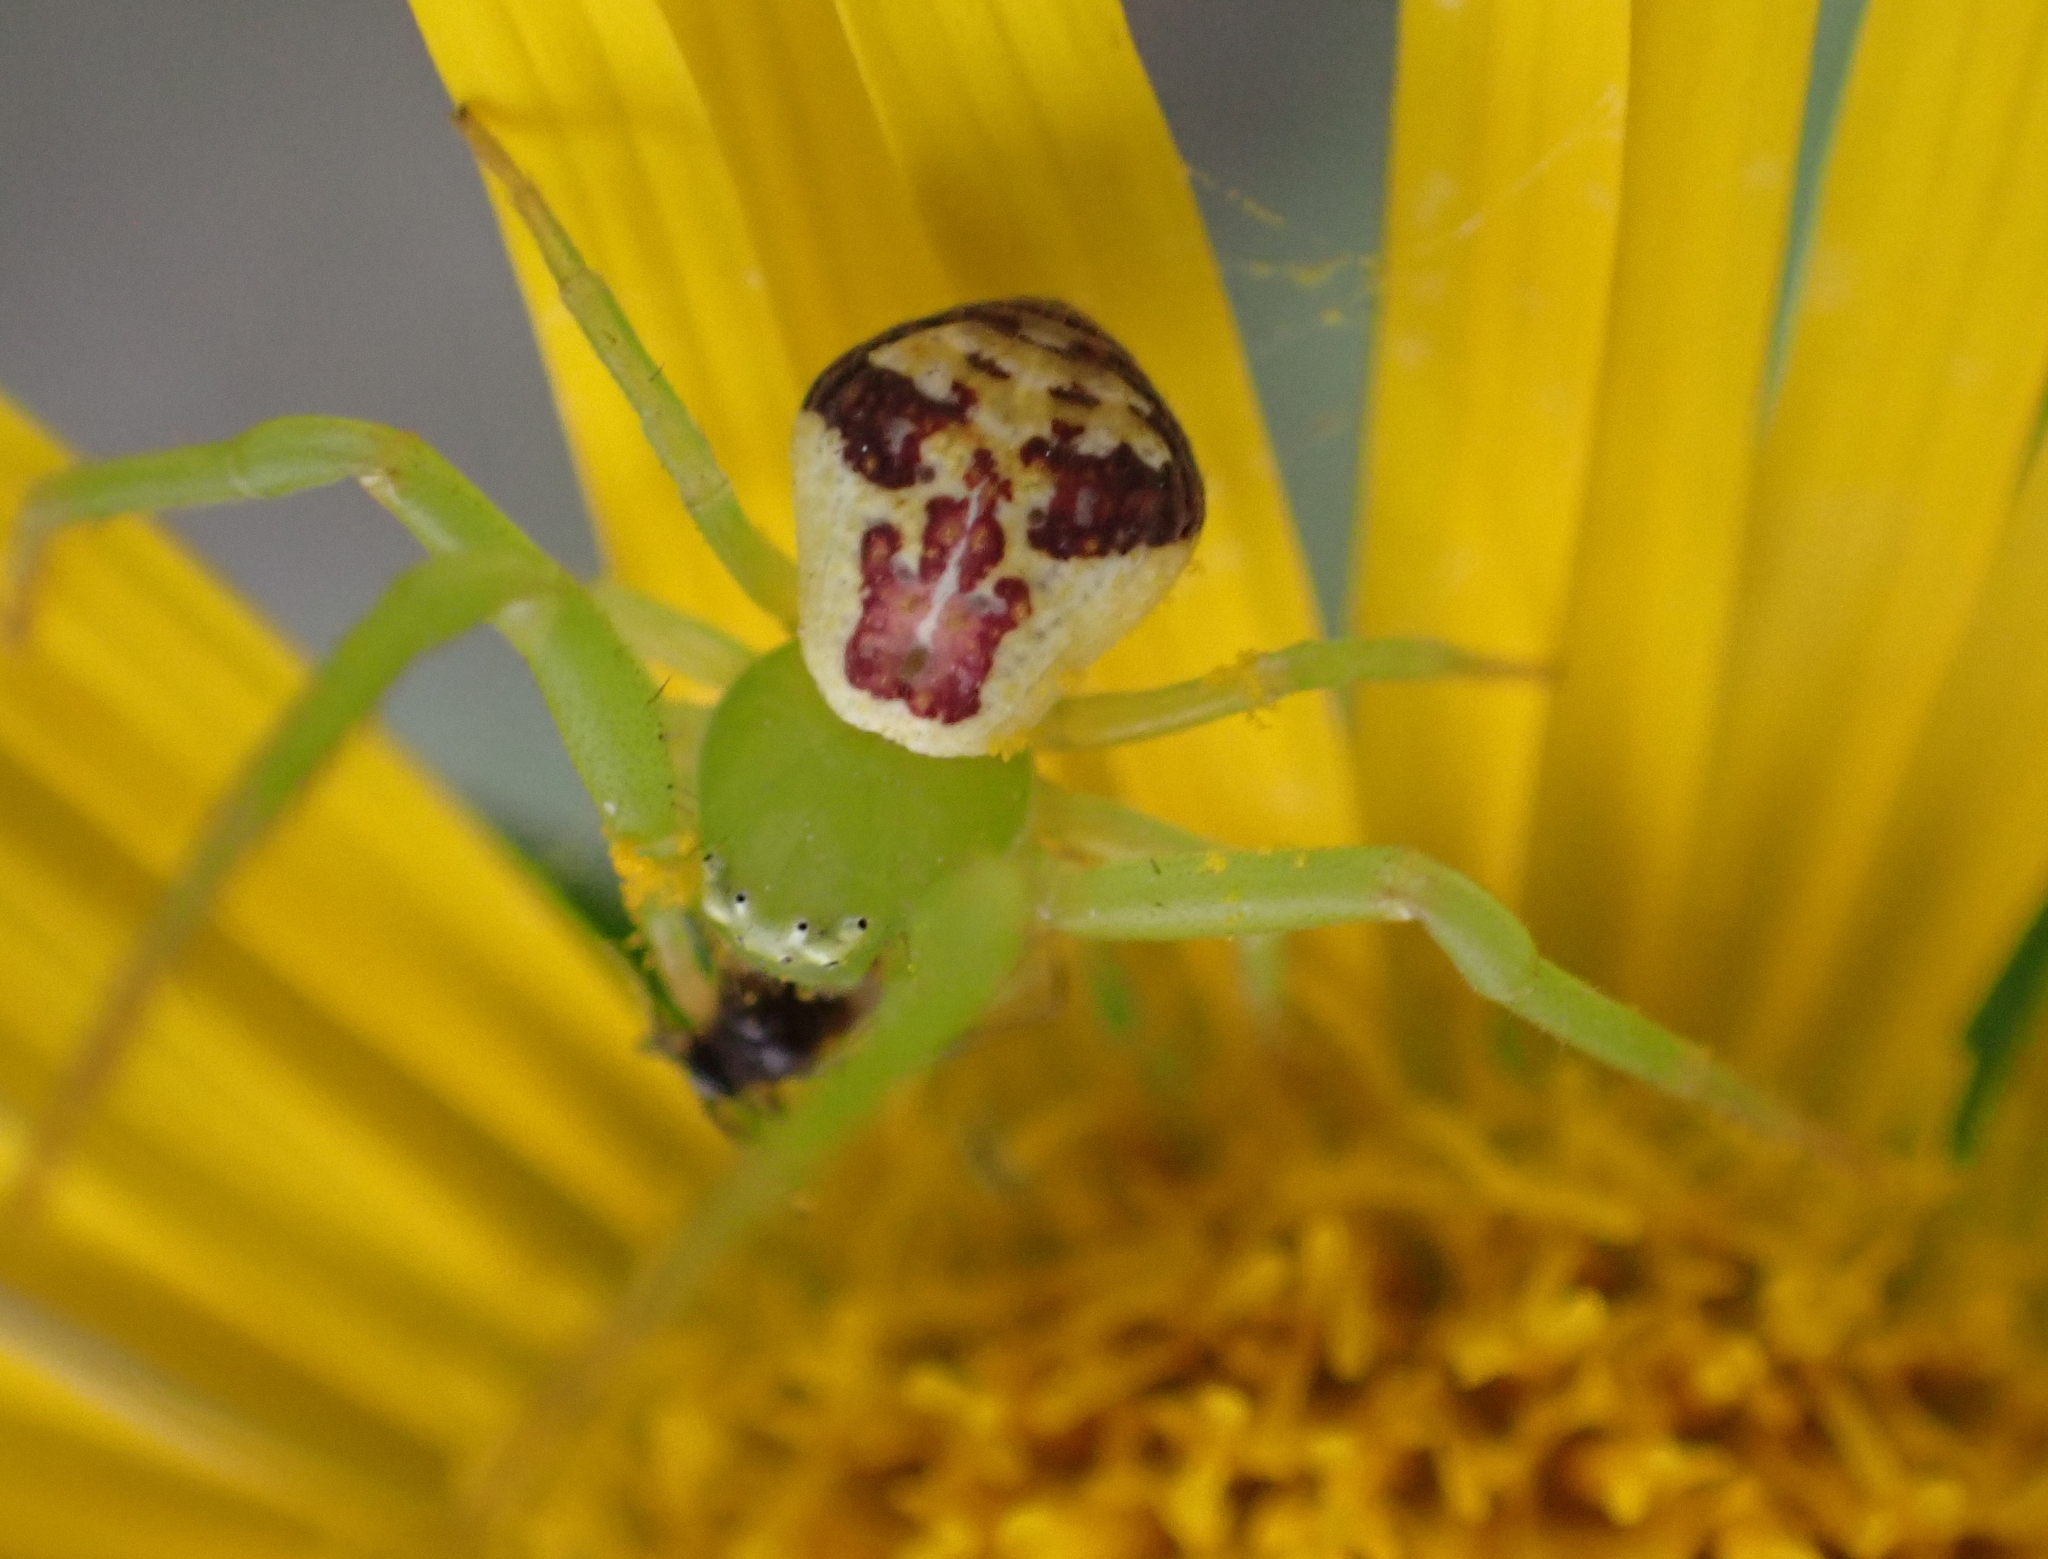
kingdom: Animalia
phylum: Arthropoda
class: Arachnida
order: Araneae
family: Thomisidae
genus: Ebrechtella
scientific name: Ebrechtella tricuspidata
